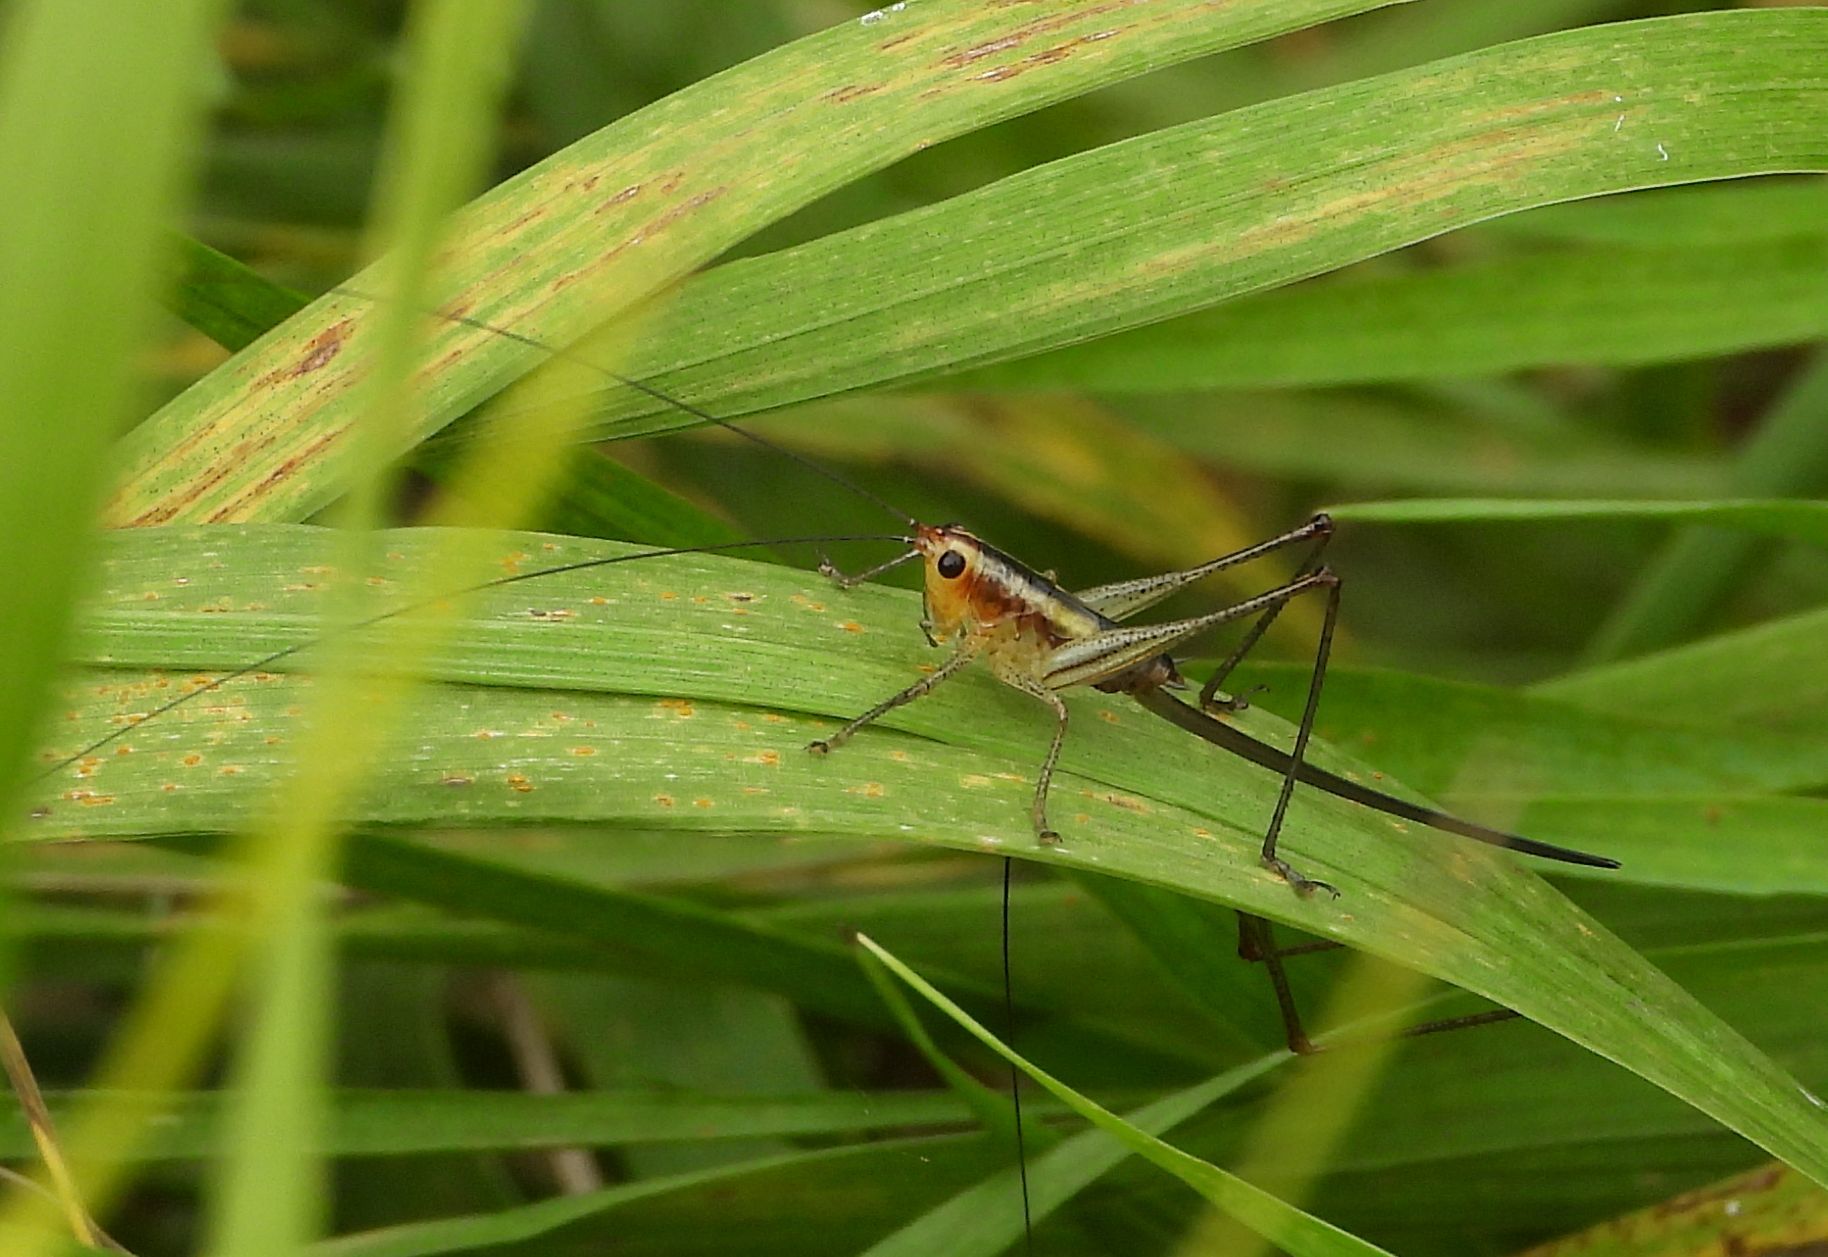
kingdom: Animalia
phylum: Arthropoda
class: Insecta
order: Orthoptera
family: Tettigoniidae
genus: Conocephalus
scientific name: Conocephalus attenuatus
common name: Long-tailed meadow katydid
